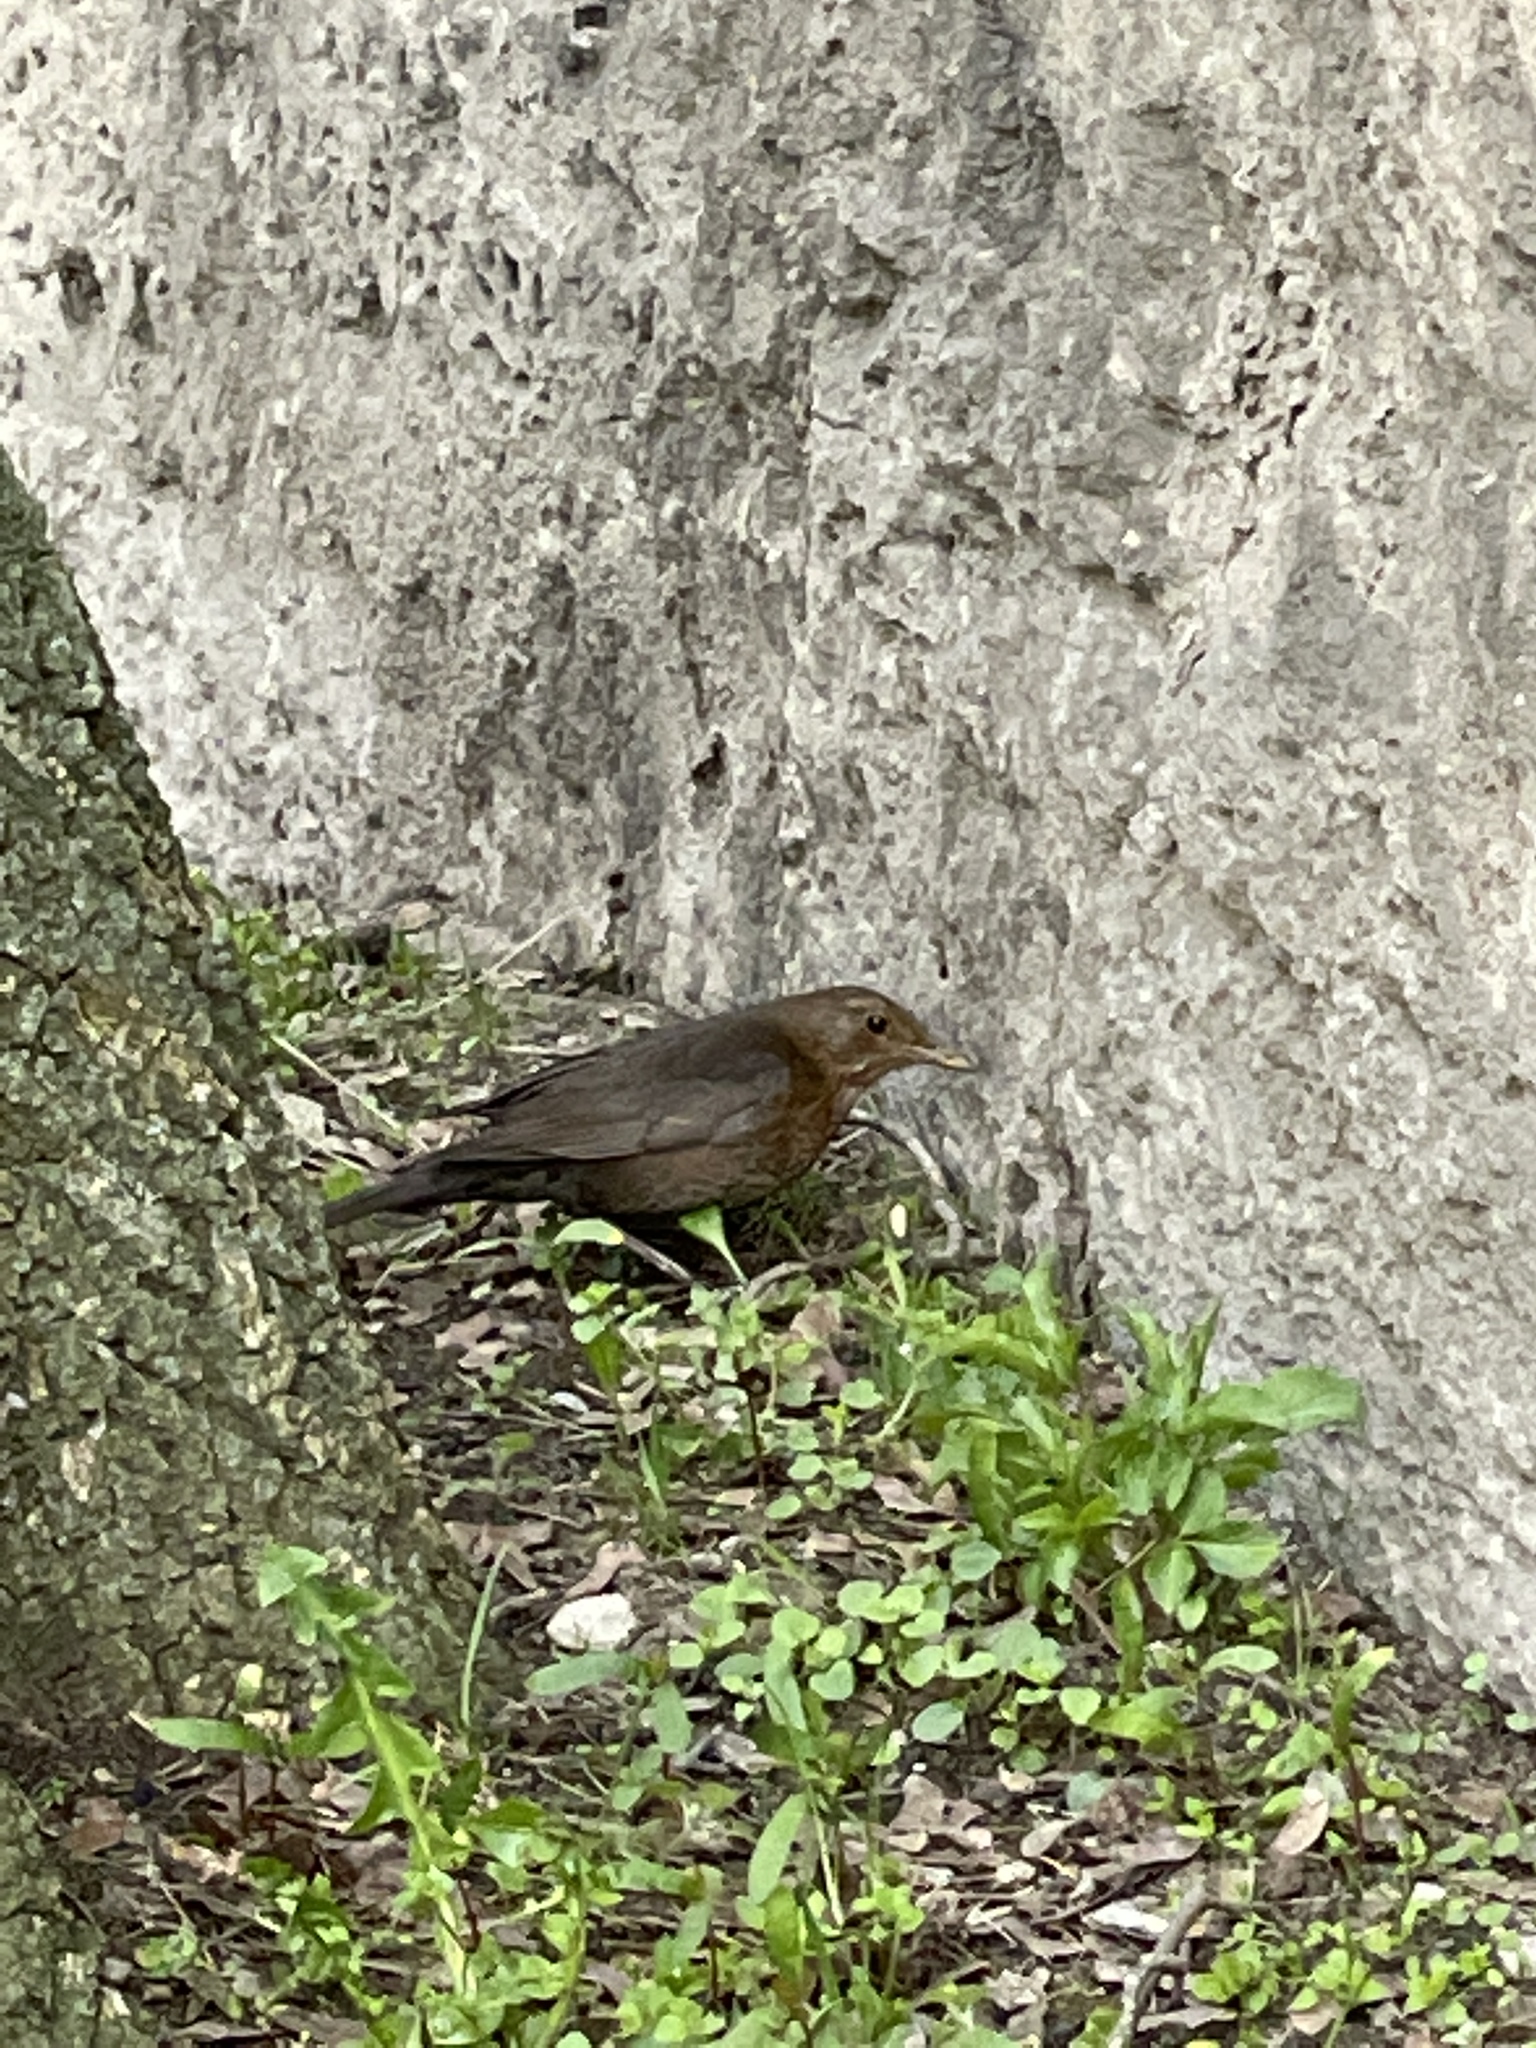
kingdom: Animalia
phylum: Chordata
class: Aves
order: Passeriformes
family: Turdidae
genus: Turdus
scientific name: Turdus merula
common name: Common blackbird
